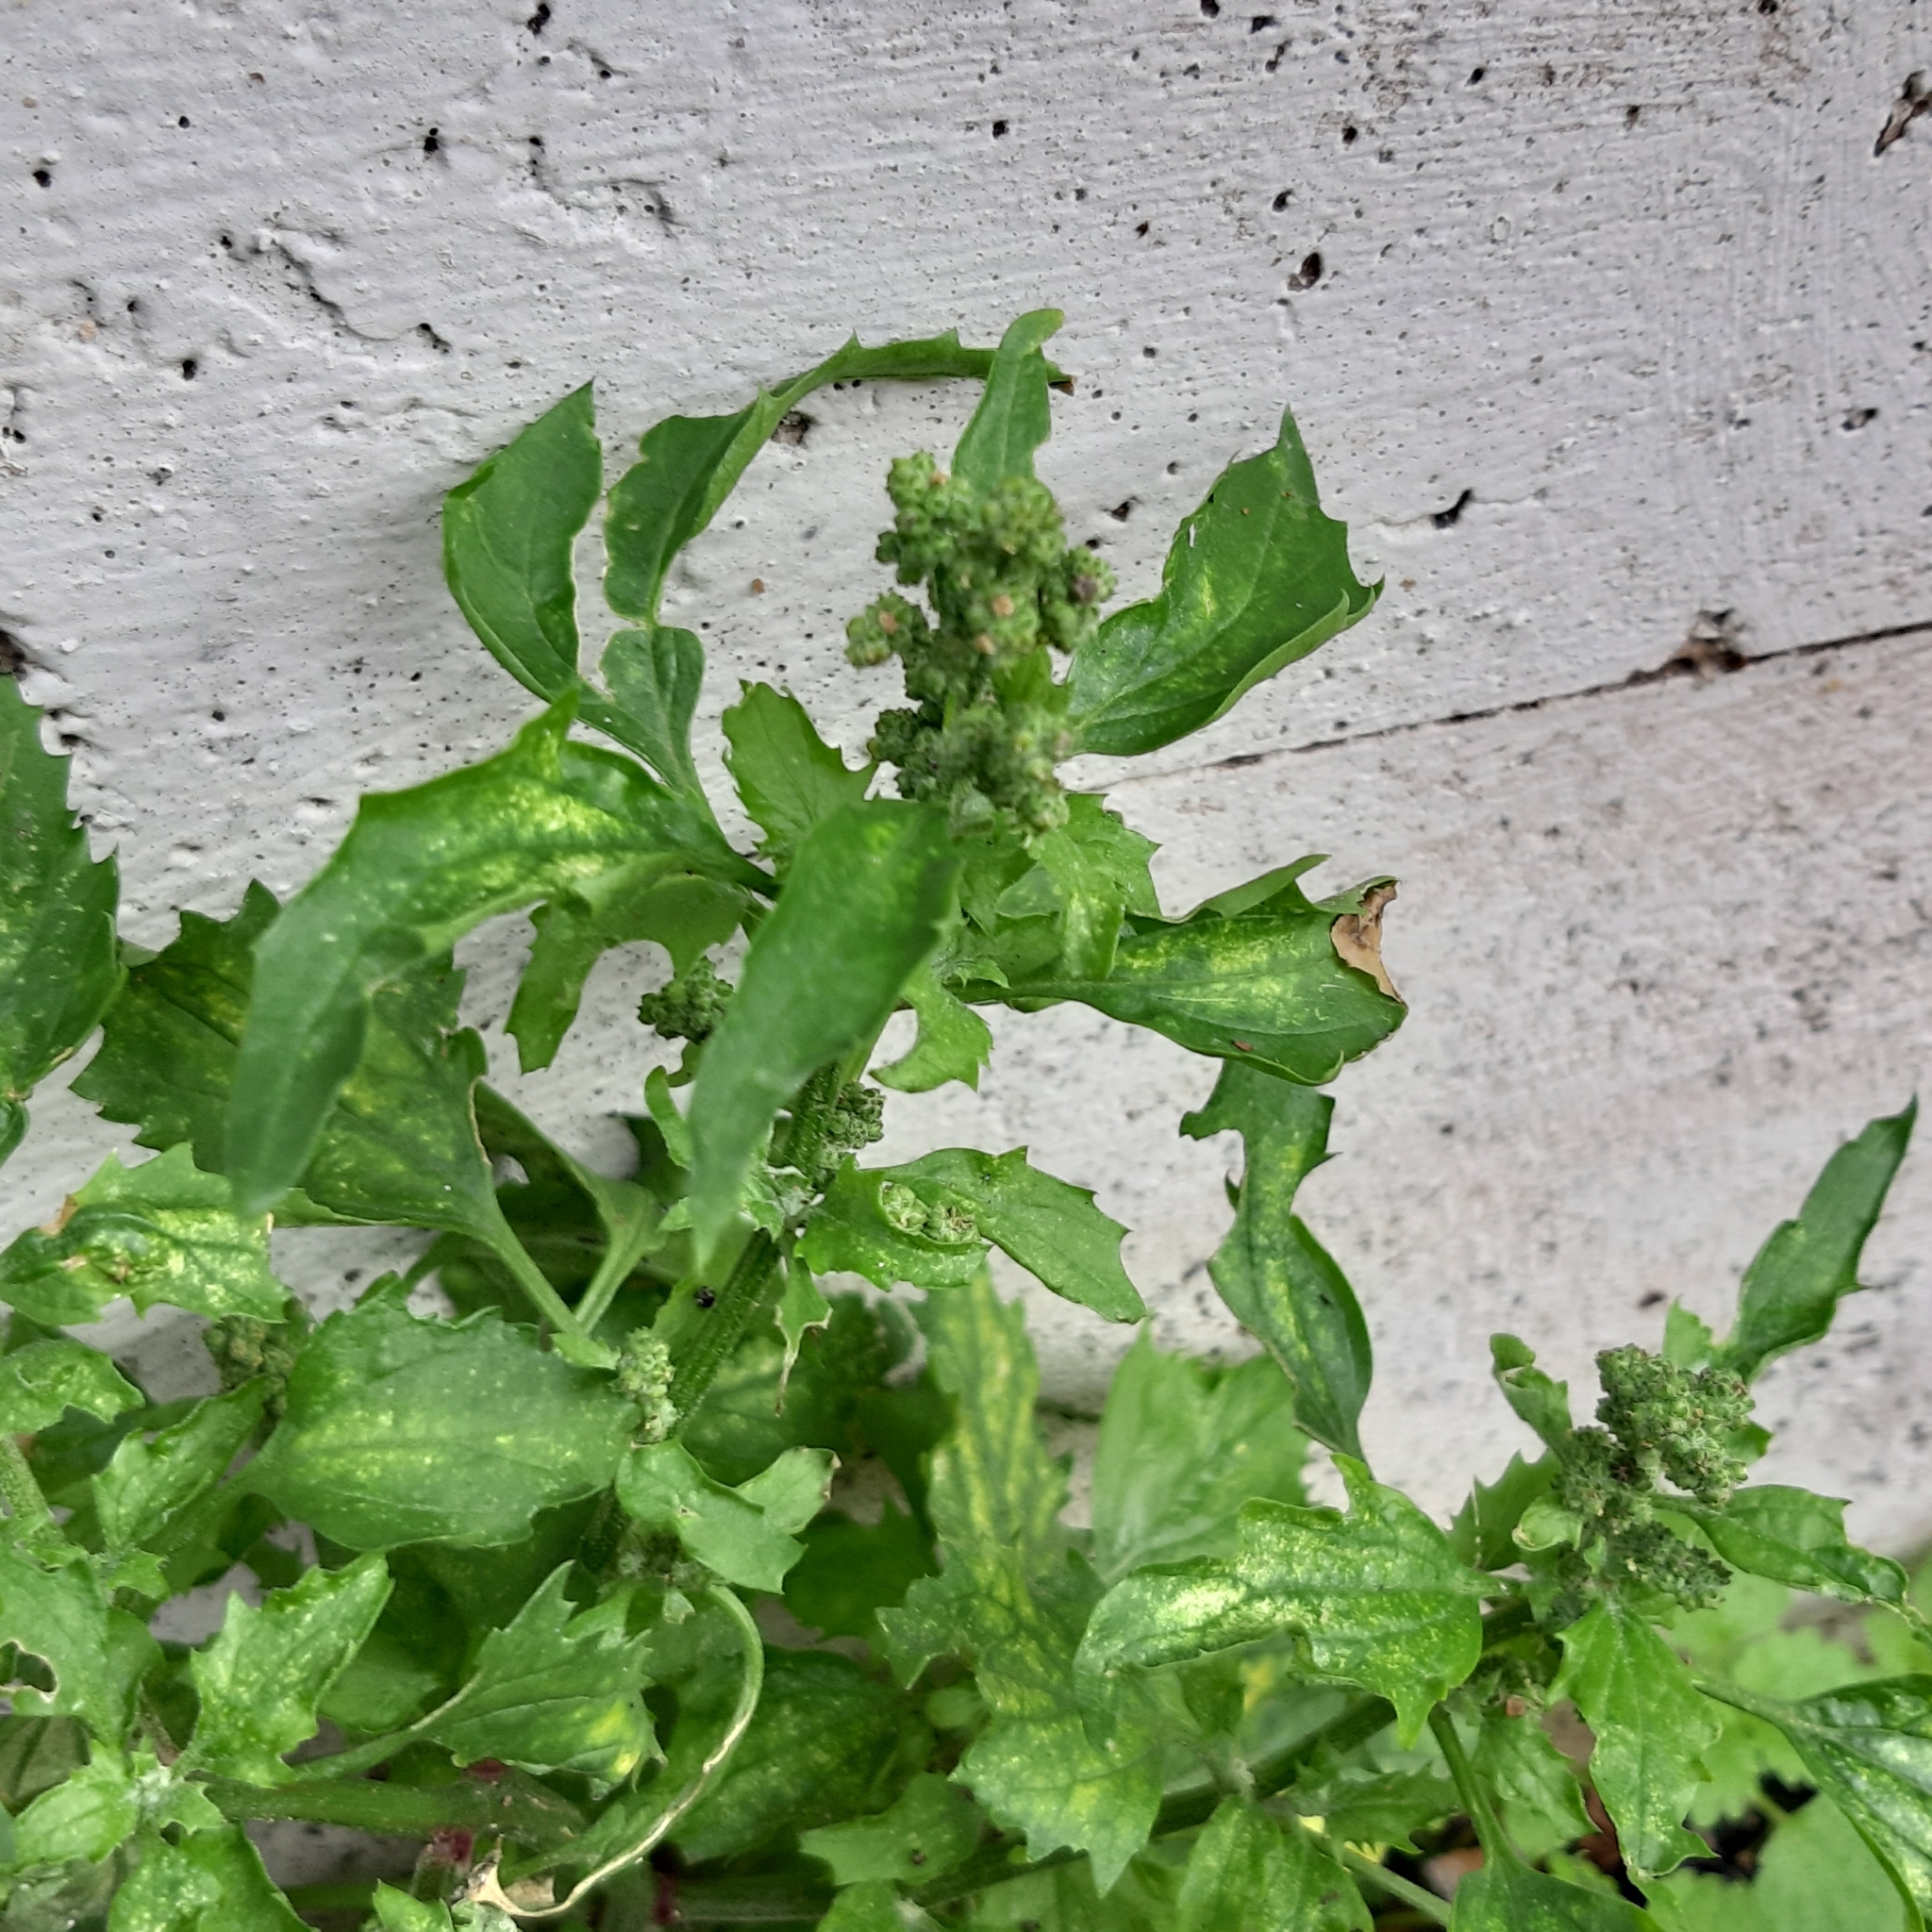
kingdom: Plantae
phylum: Tracheophyta
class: Magnoliopsida
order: Caryophyllales
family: Amaranthaceae
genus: Chenopodiastrum
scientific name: Chenopodiastrum murale
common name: Sowbane
